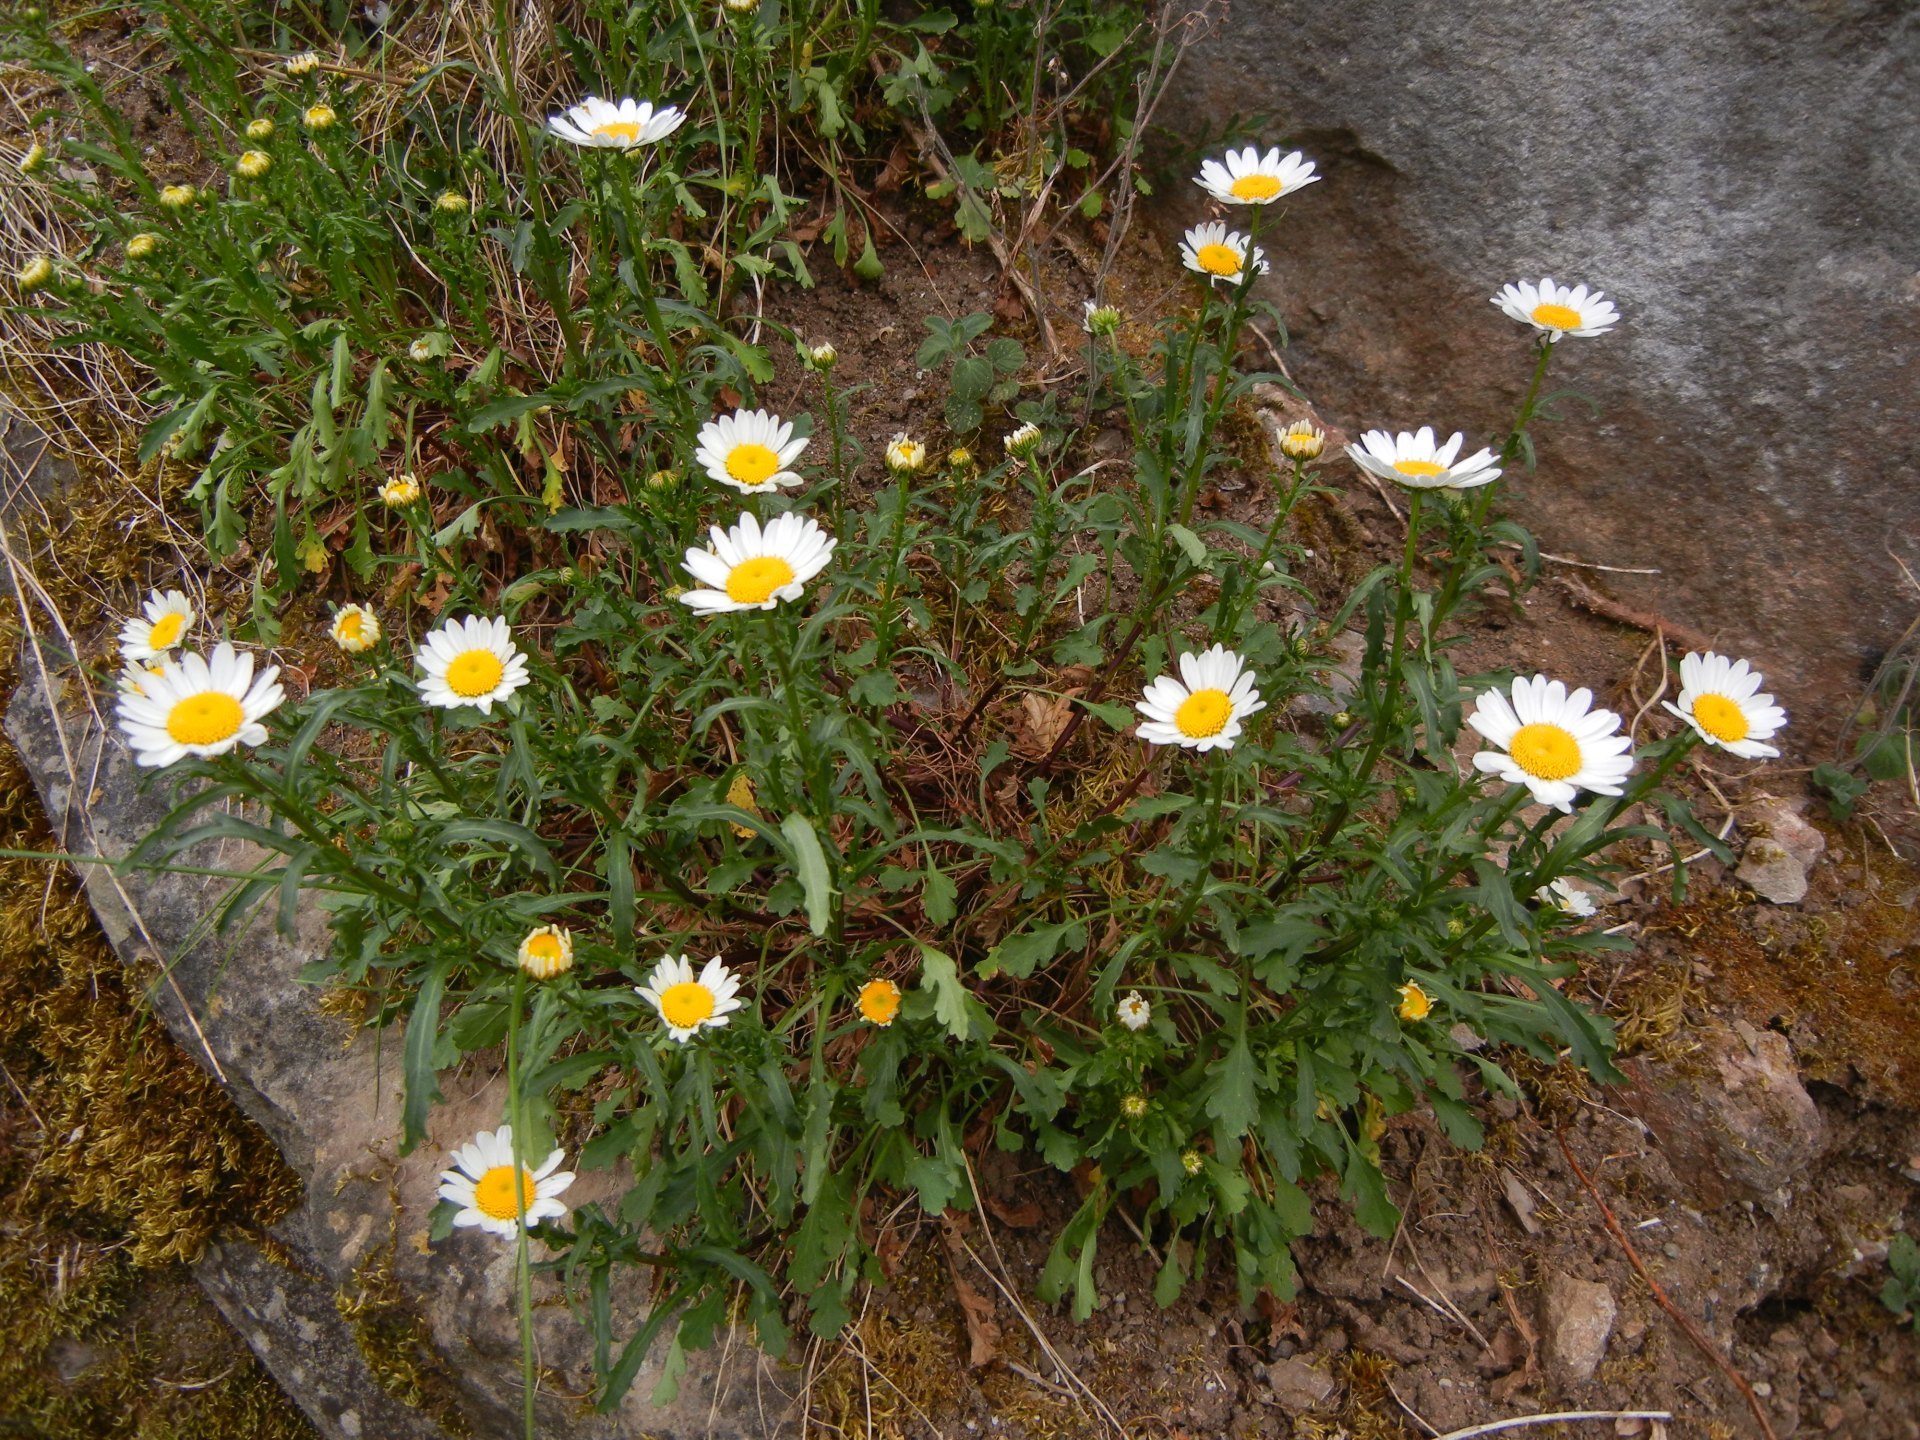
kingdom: Plantae
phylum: Tracheophyta
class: Magnoliopsida
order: Asterales
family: Asteraceae
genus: Leucanthemum
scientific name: Leucanthemum vulgare
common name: Oxeye daisy
